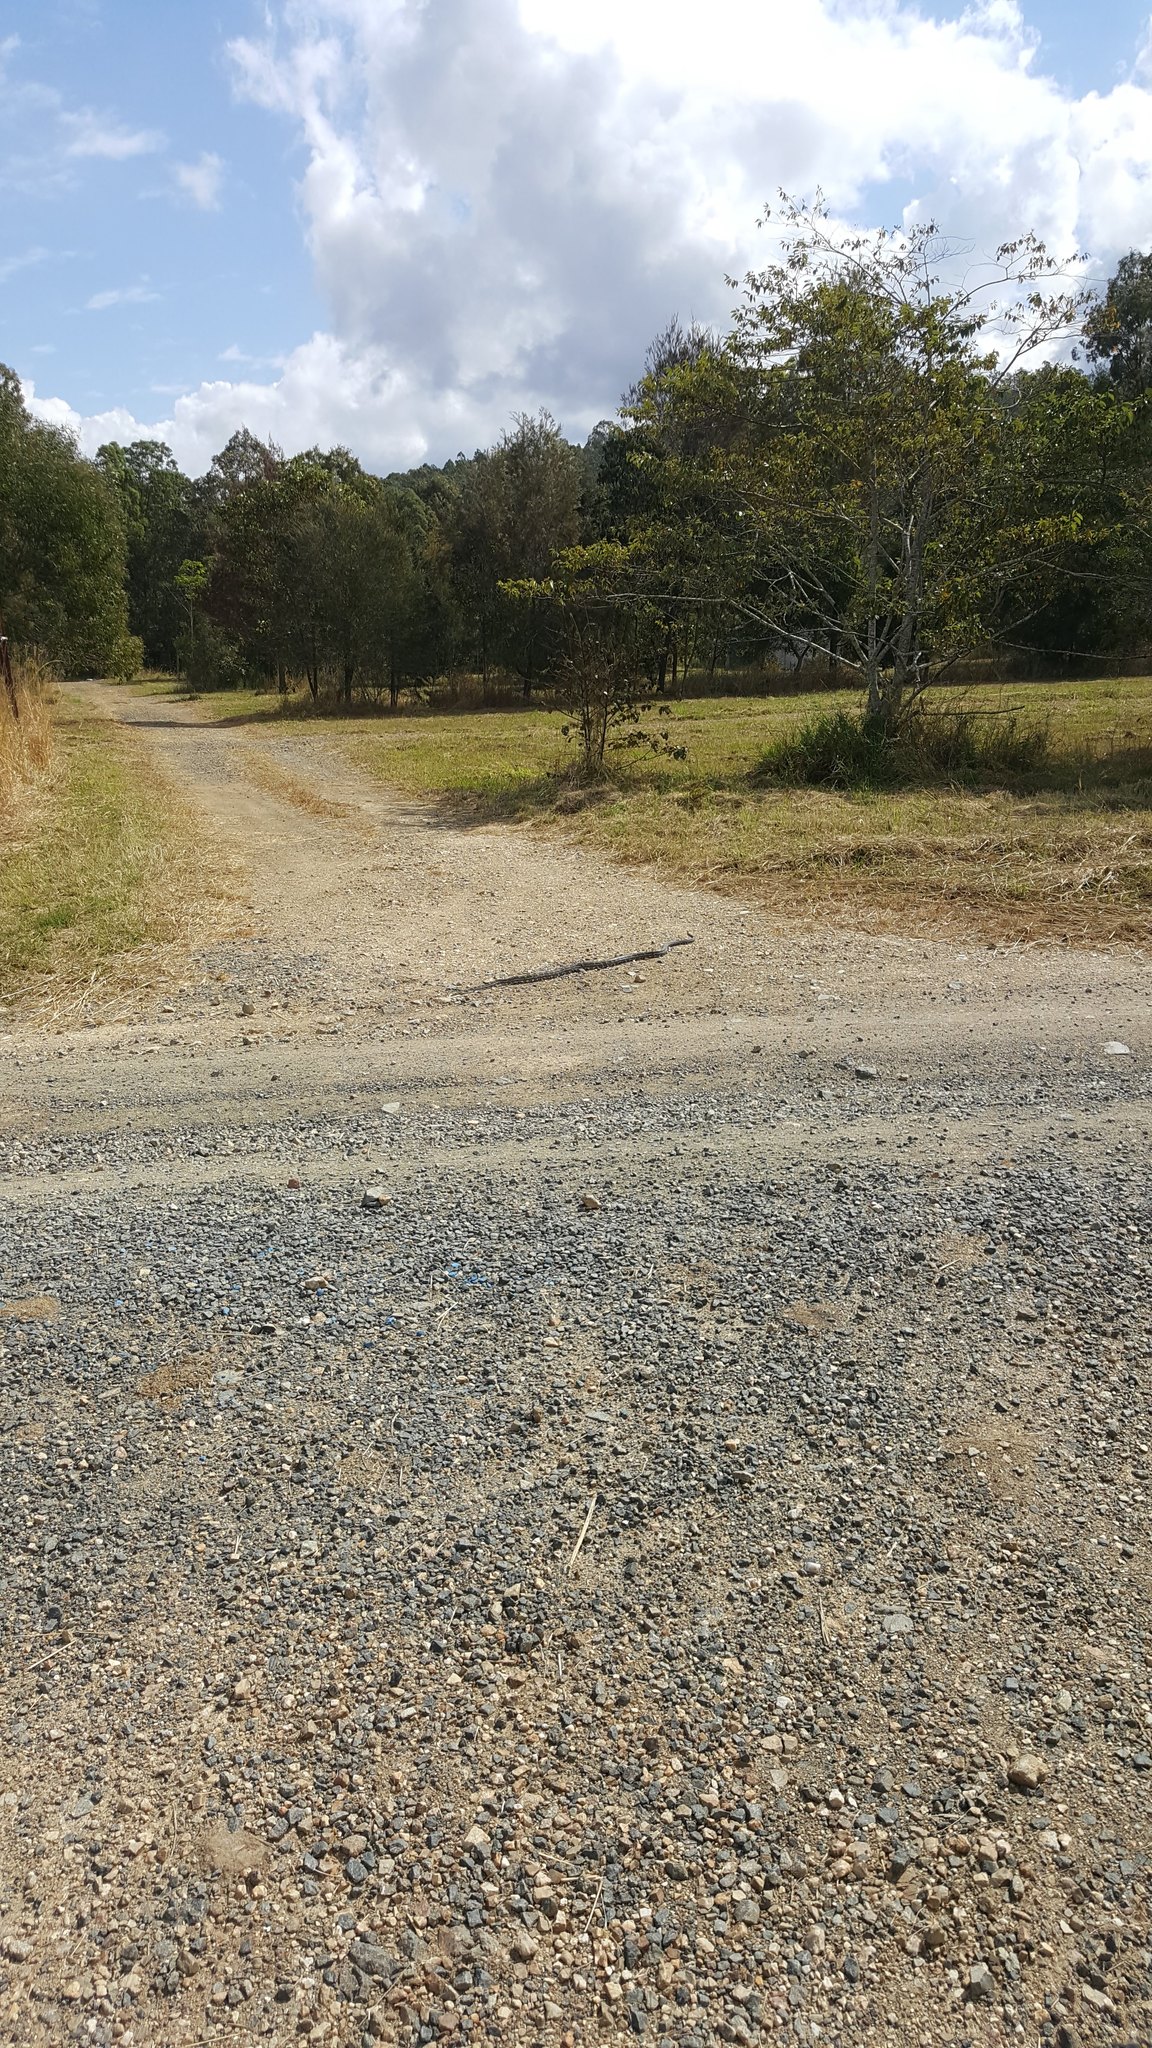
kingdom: Animalia
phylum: Chordata
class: Squamata
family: Pythonidae
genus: Morelia
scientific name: Morelia spilota
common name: Carpet python
